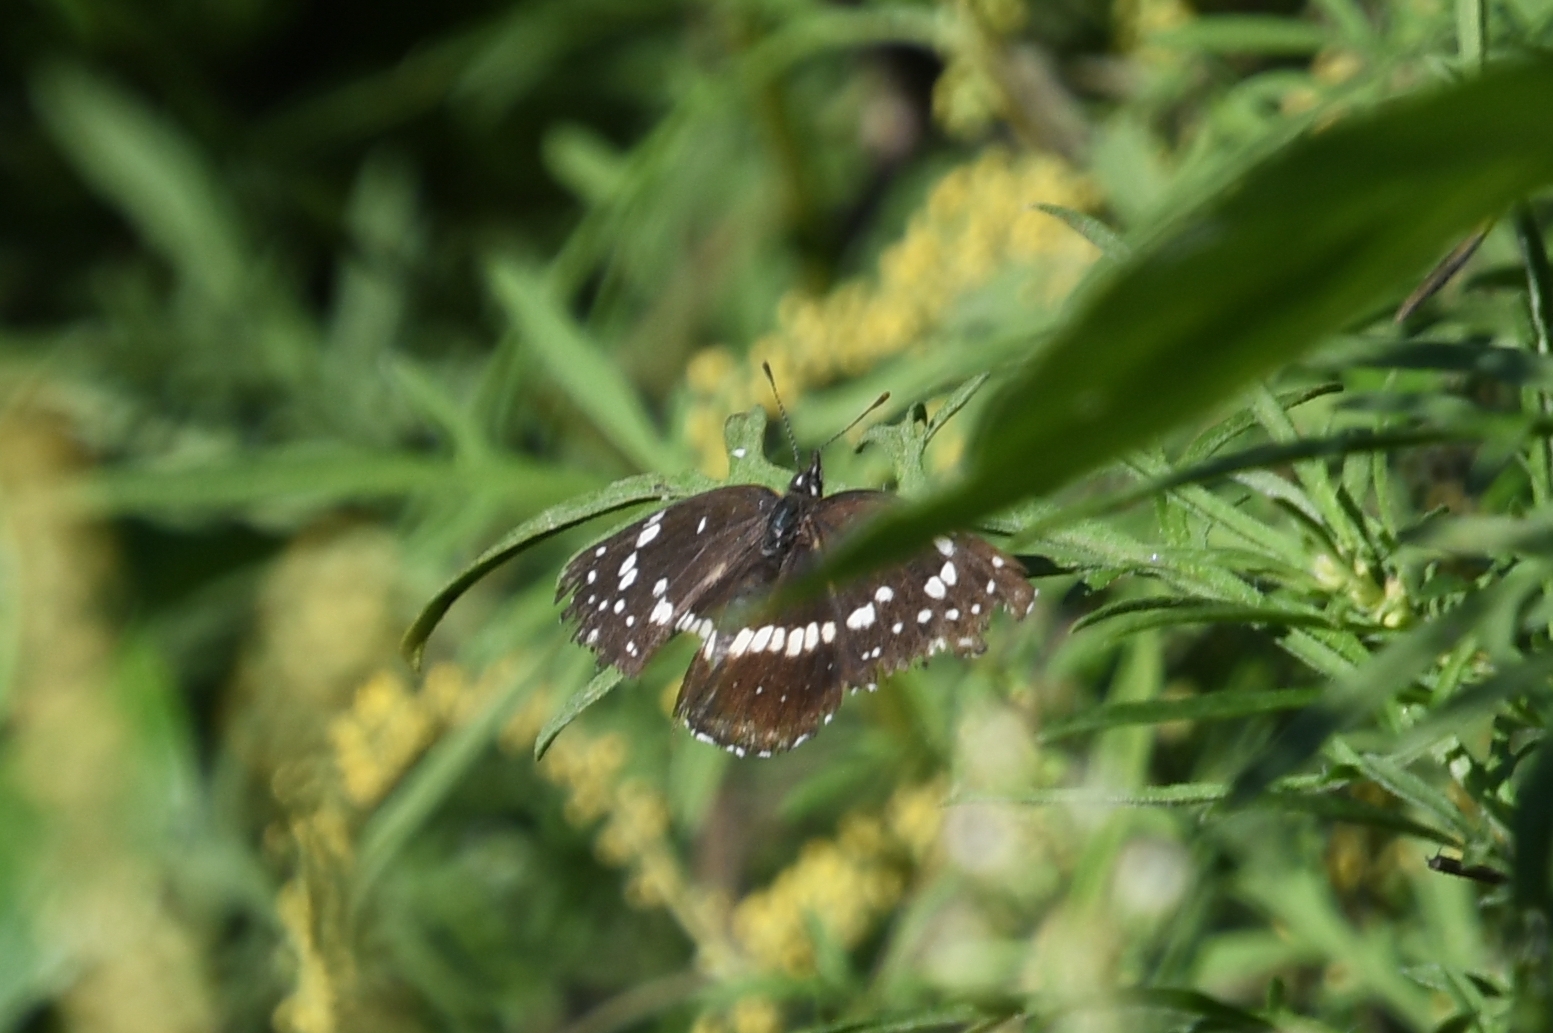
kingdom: Animalia
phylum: Arthropoda
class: Insecta
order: Lepidoptera
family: Nymphalidae
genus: Anthanassa
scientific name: Anthanassa texana
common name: Texan crescent
